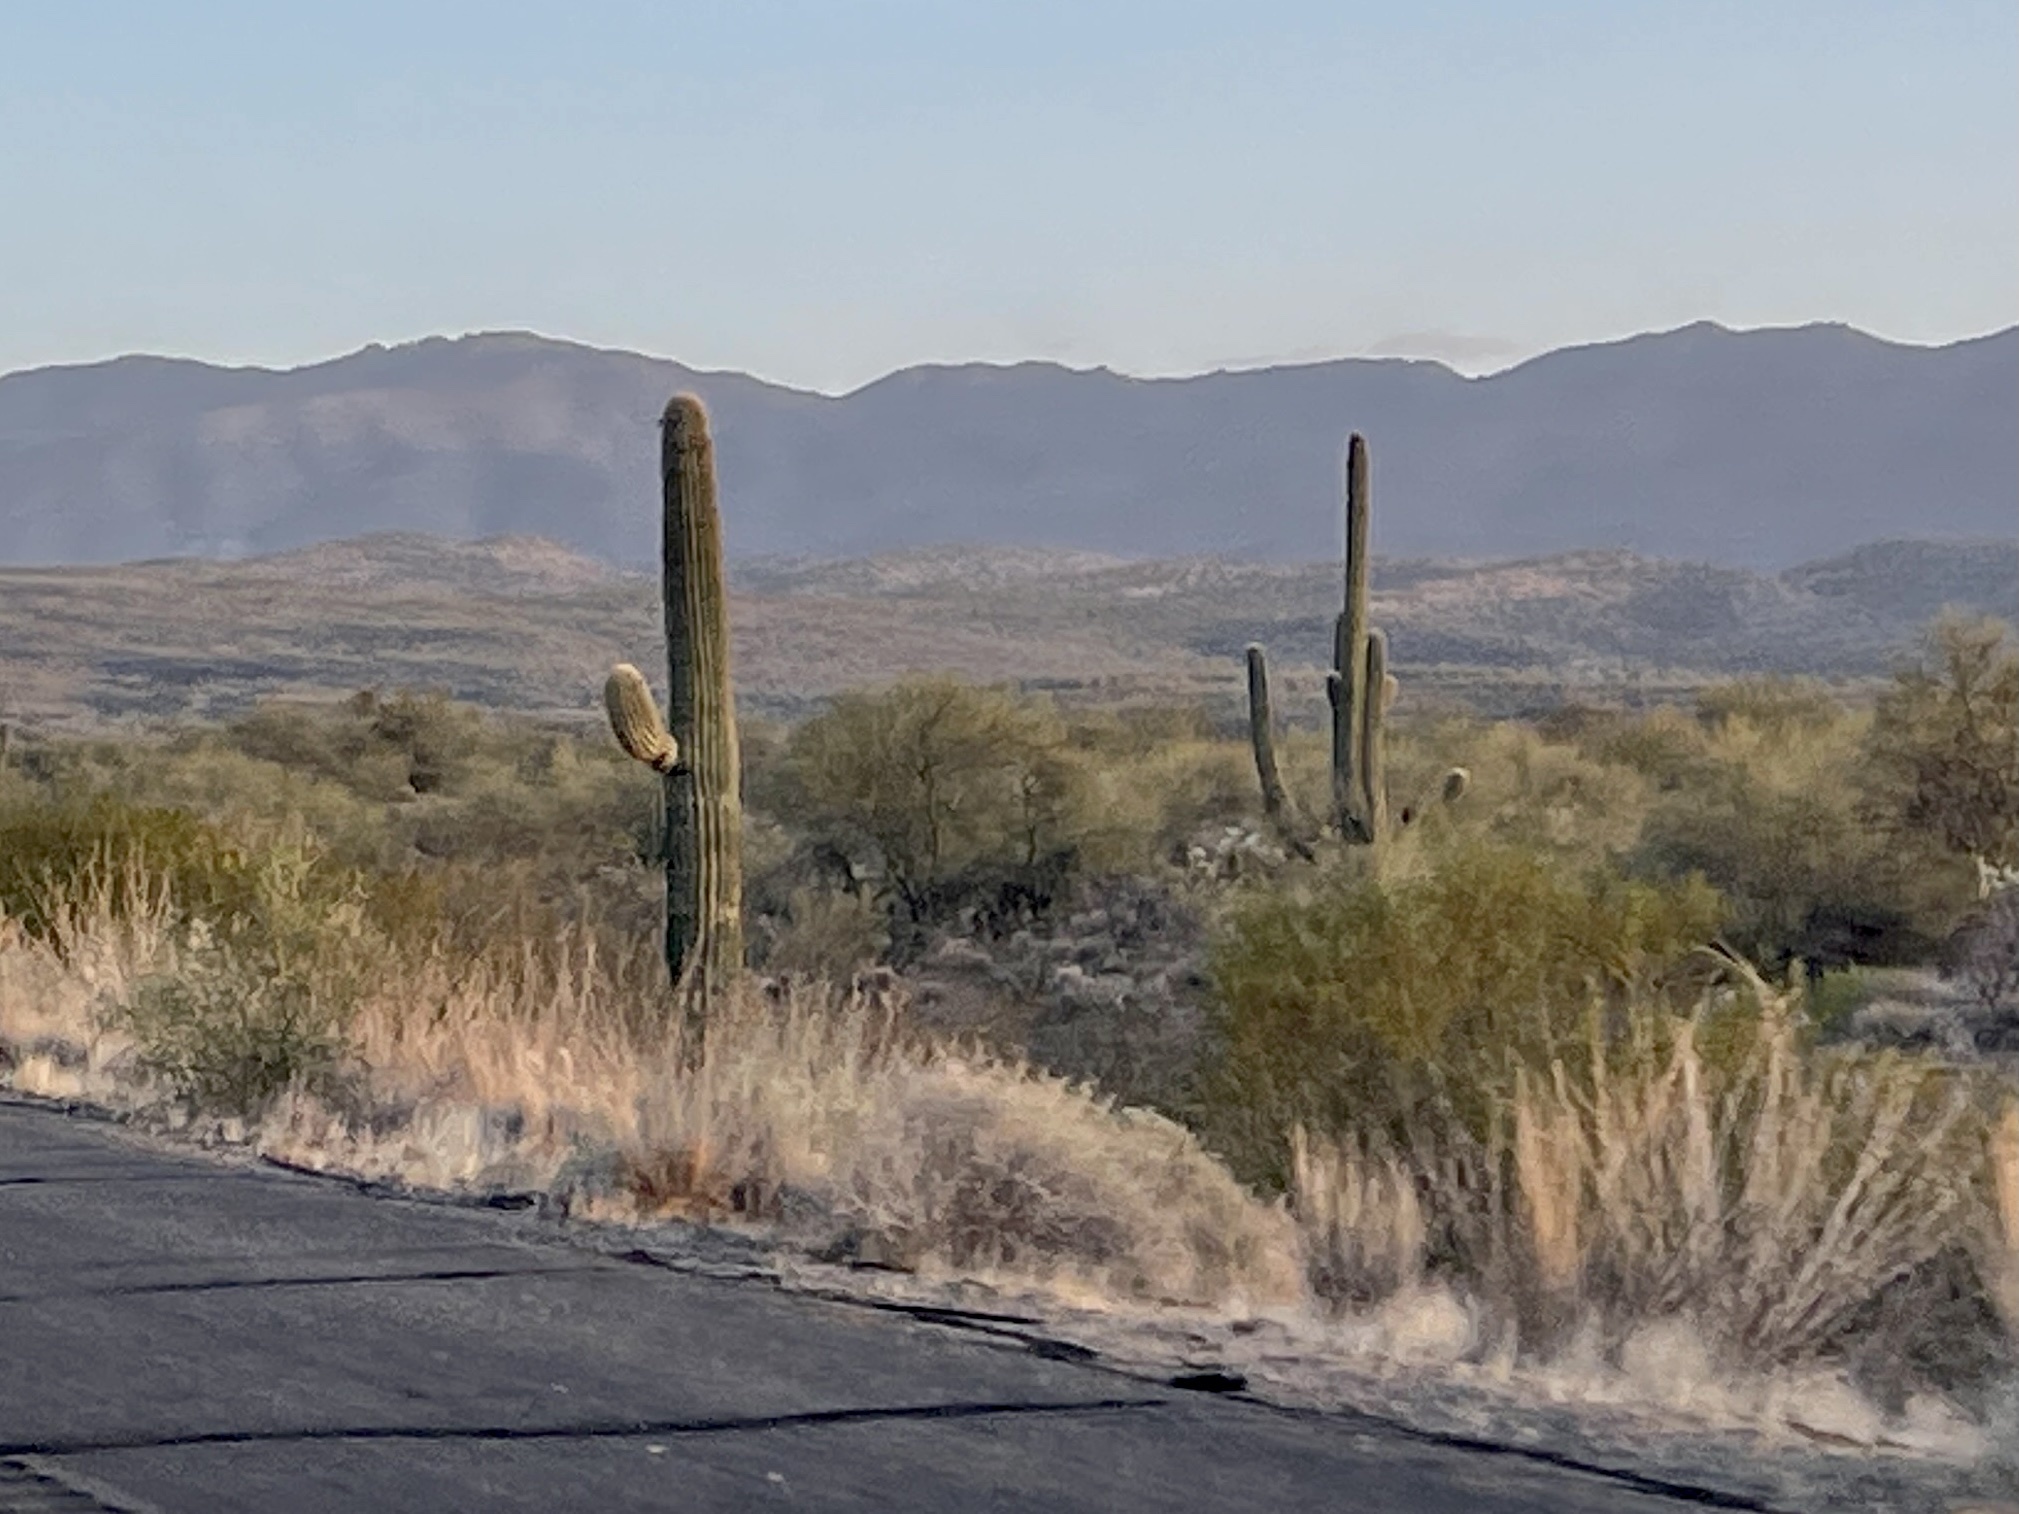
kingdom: Plantae
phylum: Tracheophyta
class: Magnoliopsida
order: Caryophyllales
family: Cactaceae
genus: Carnegiea
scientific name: Carnegiea gigantea
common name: Saguaro
